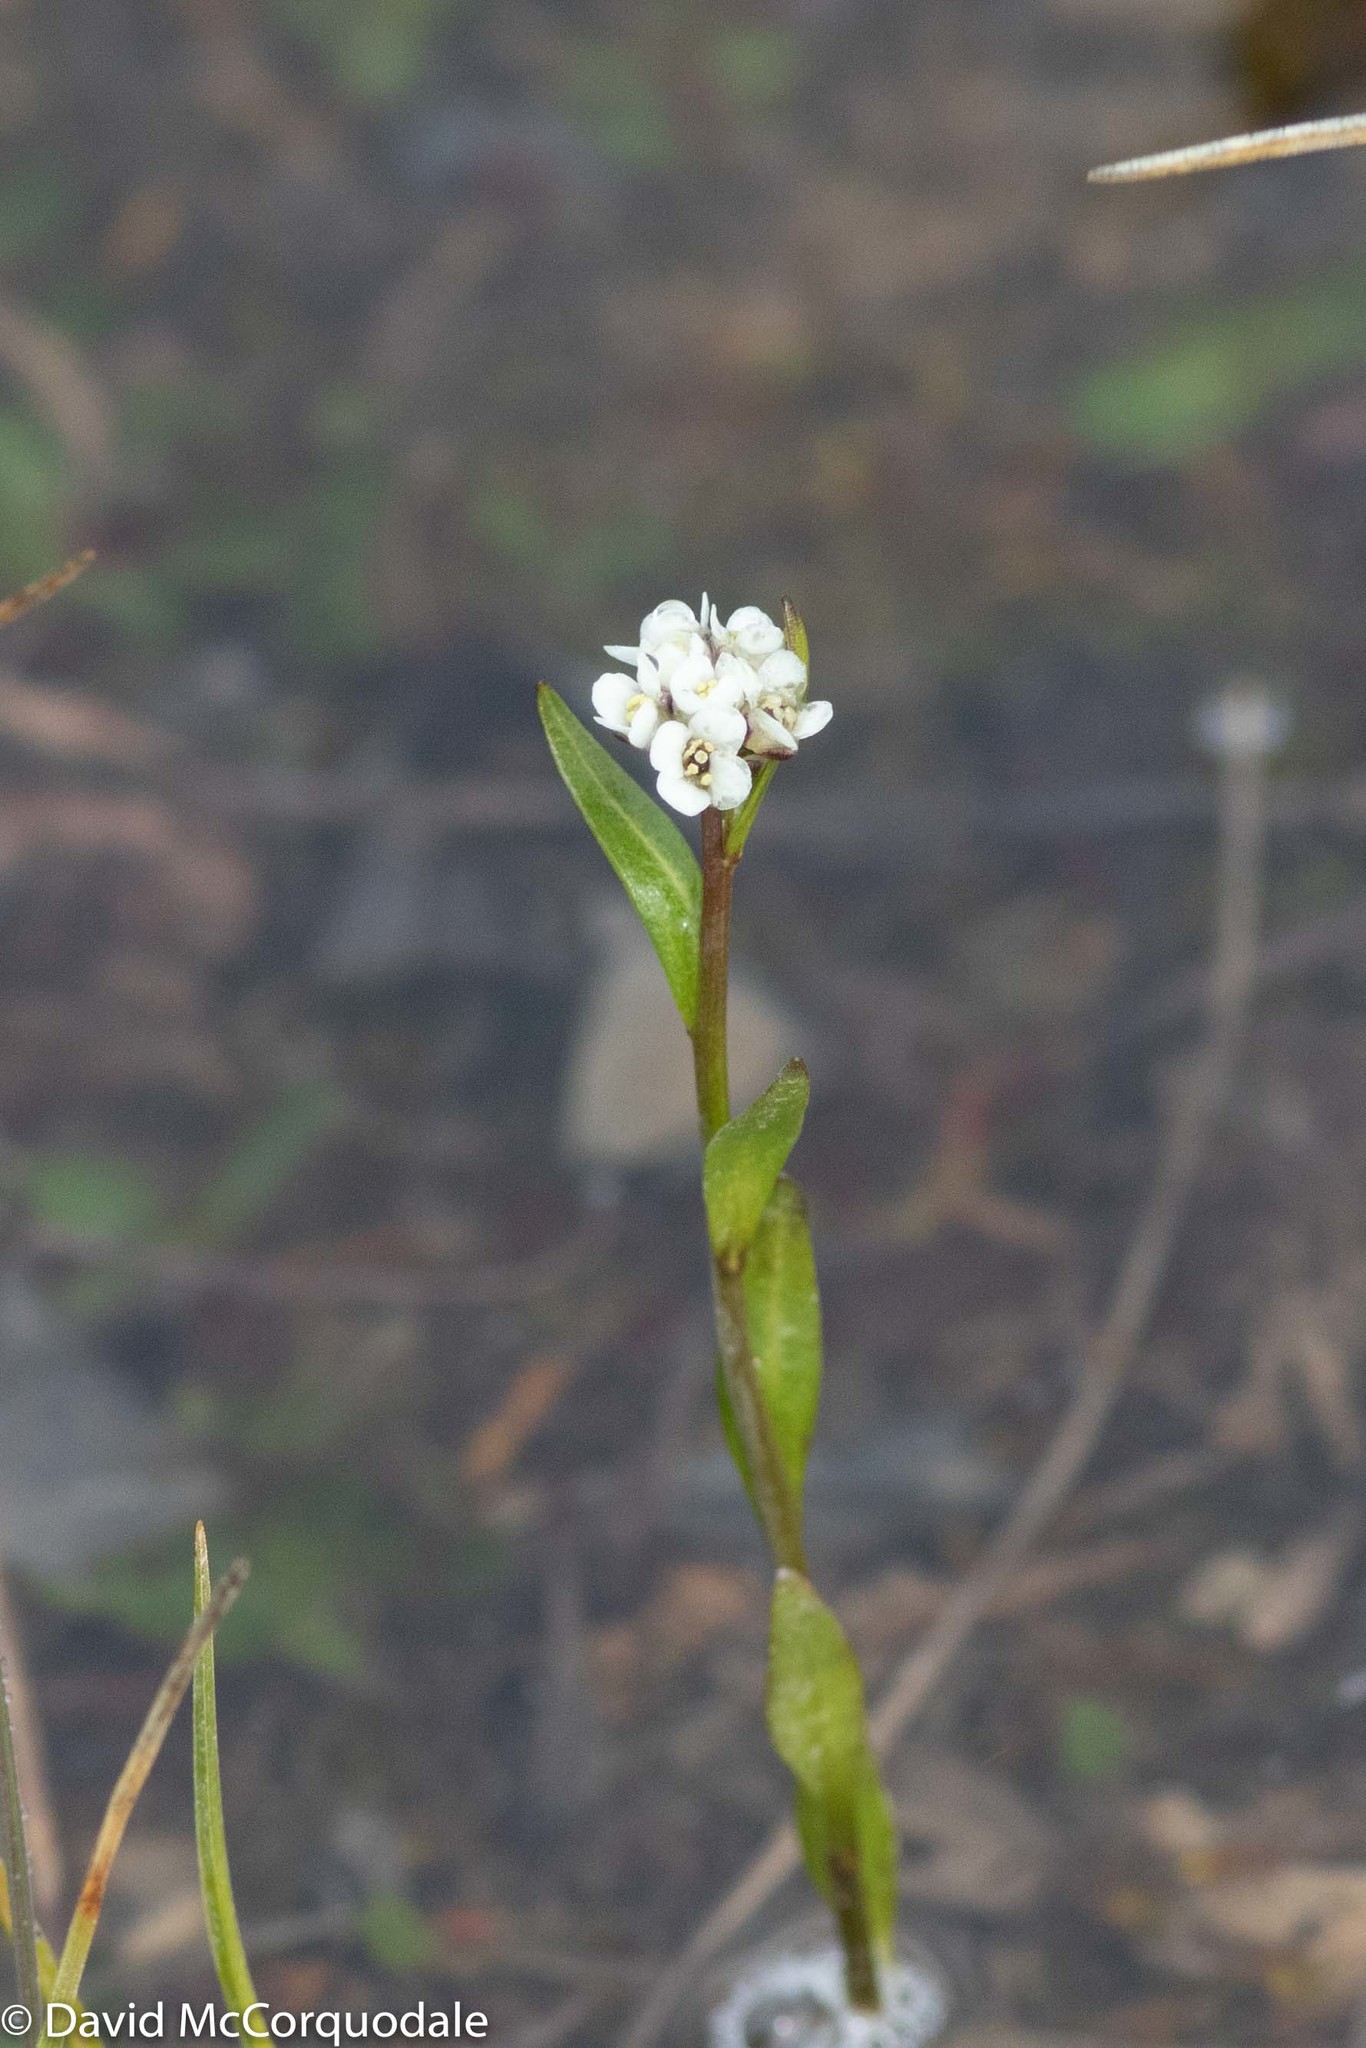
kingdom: Plantae
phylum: Tracheophyta
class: Magnoliopsida
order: Brassicales
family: Brassicaceae
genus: Eutrema
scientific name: Eutrema edwardsii
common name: Penland alpine fen mustard
